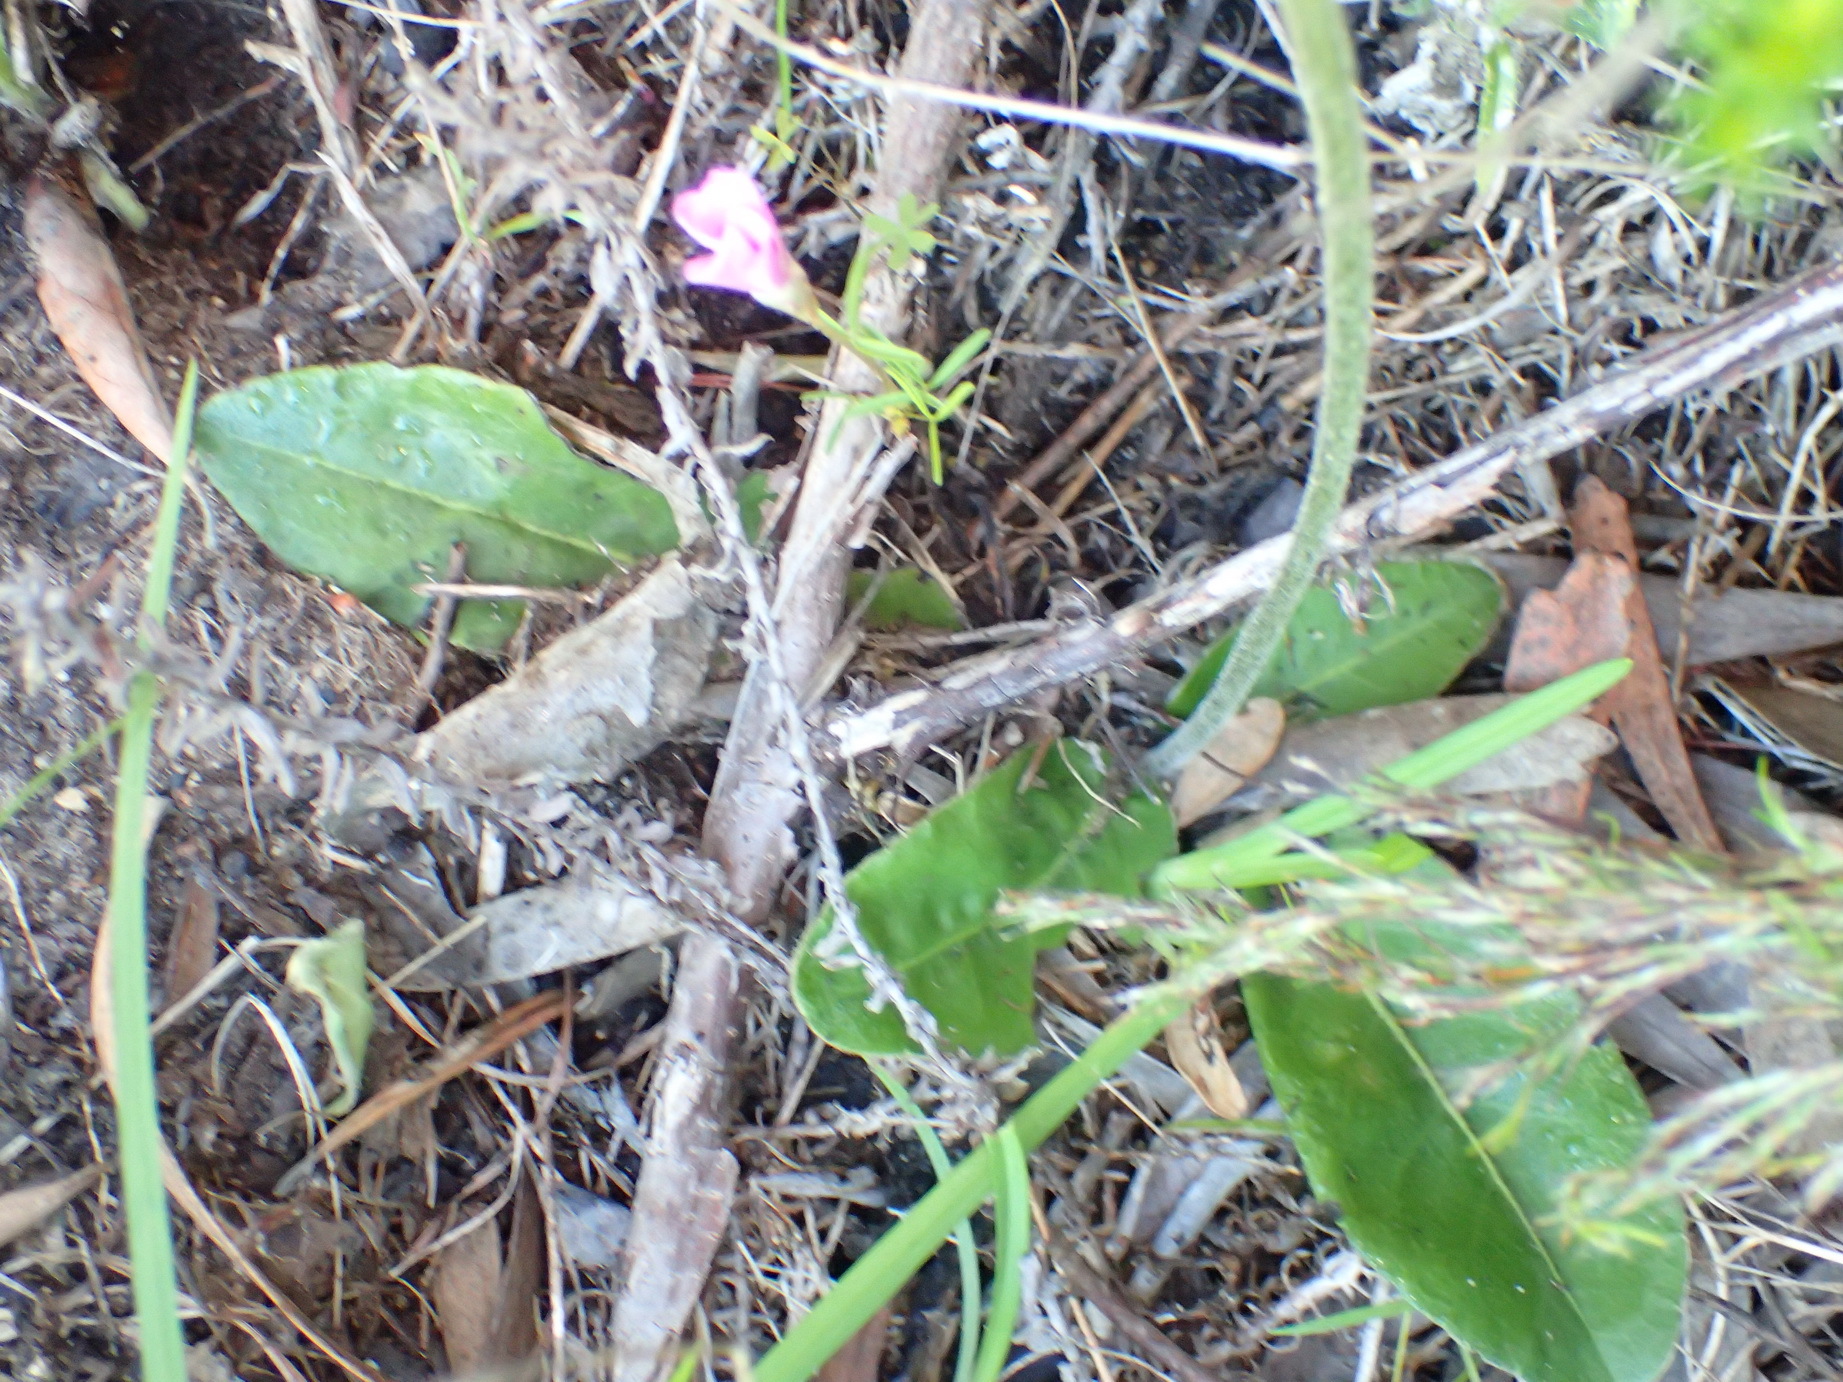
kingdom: Plantae
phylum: Tracheophyta
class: Magnoliopsida
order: Asterales
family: Asteraceae
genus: Piloselloides
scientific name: Piloselloides hirsuta
